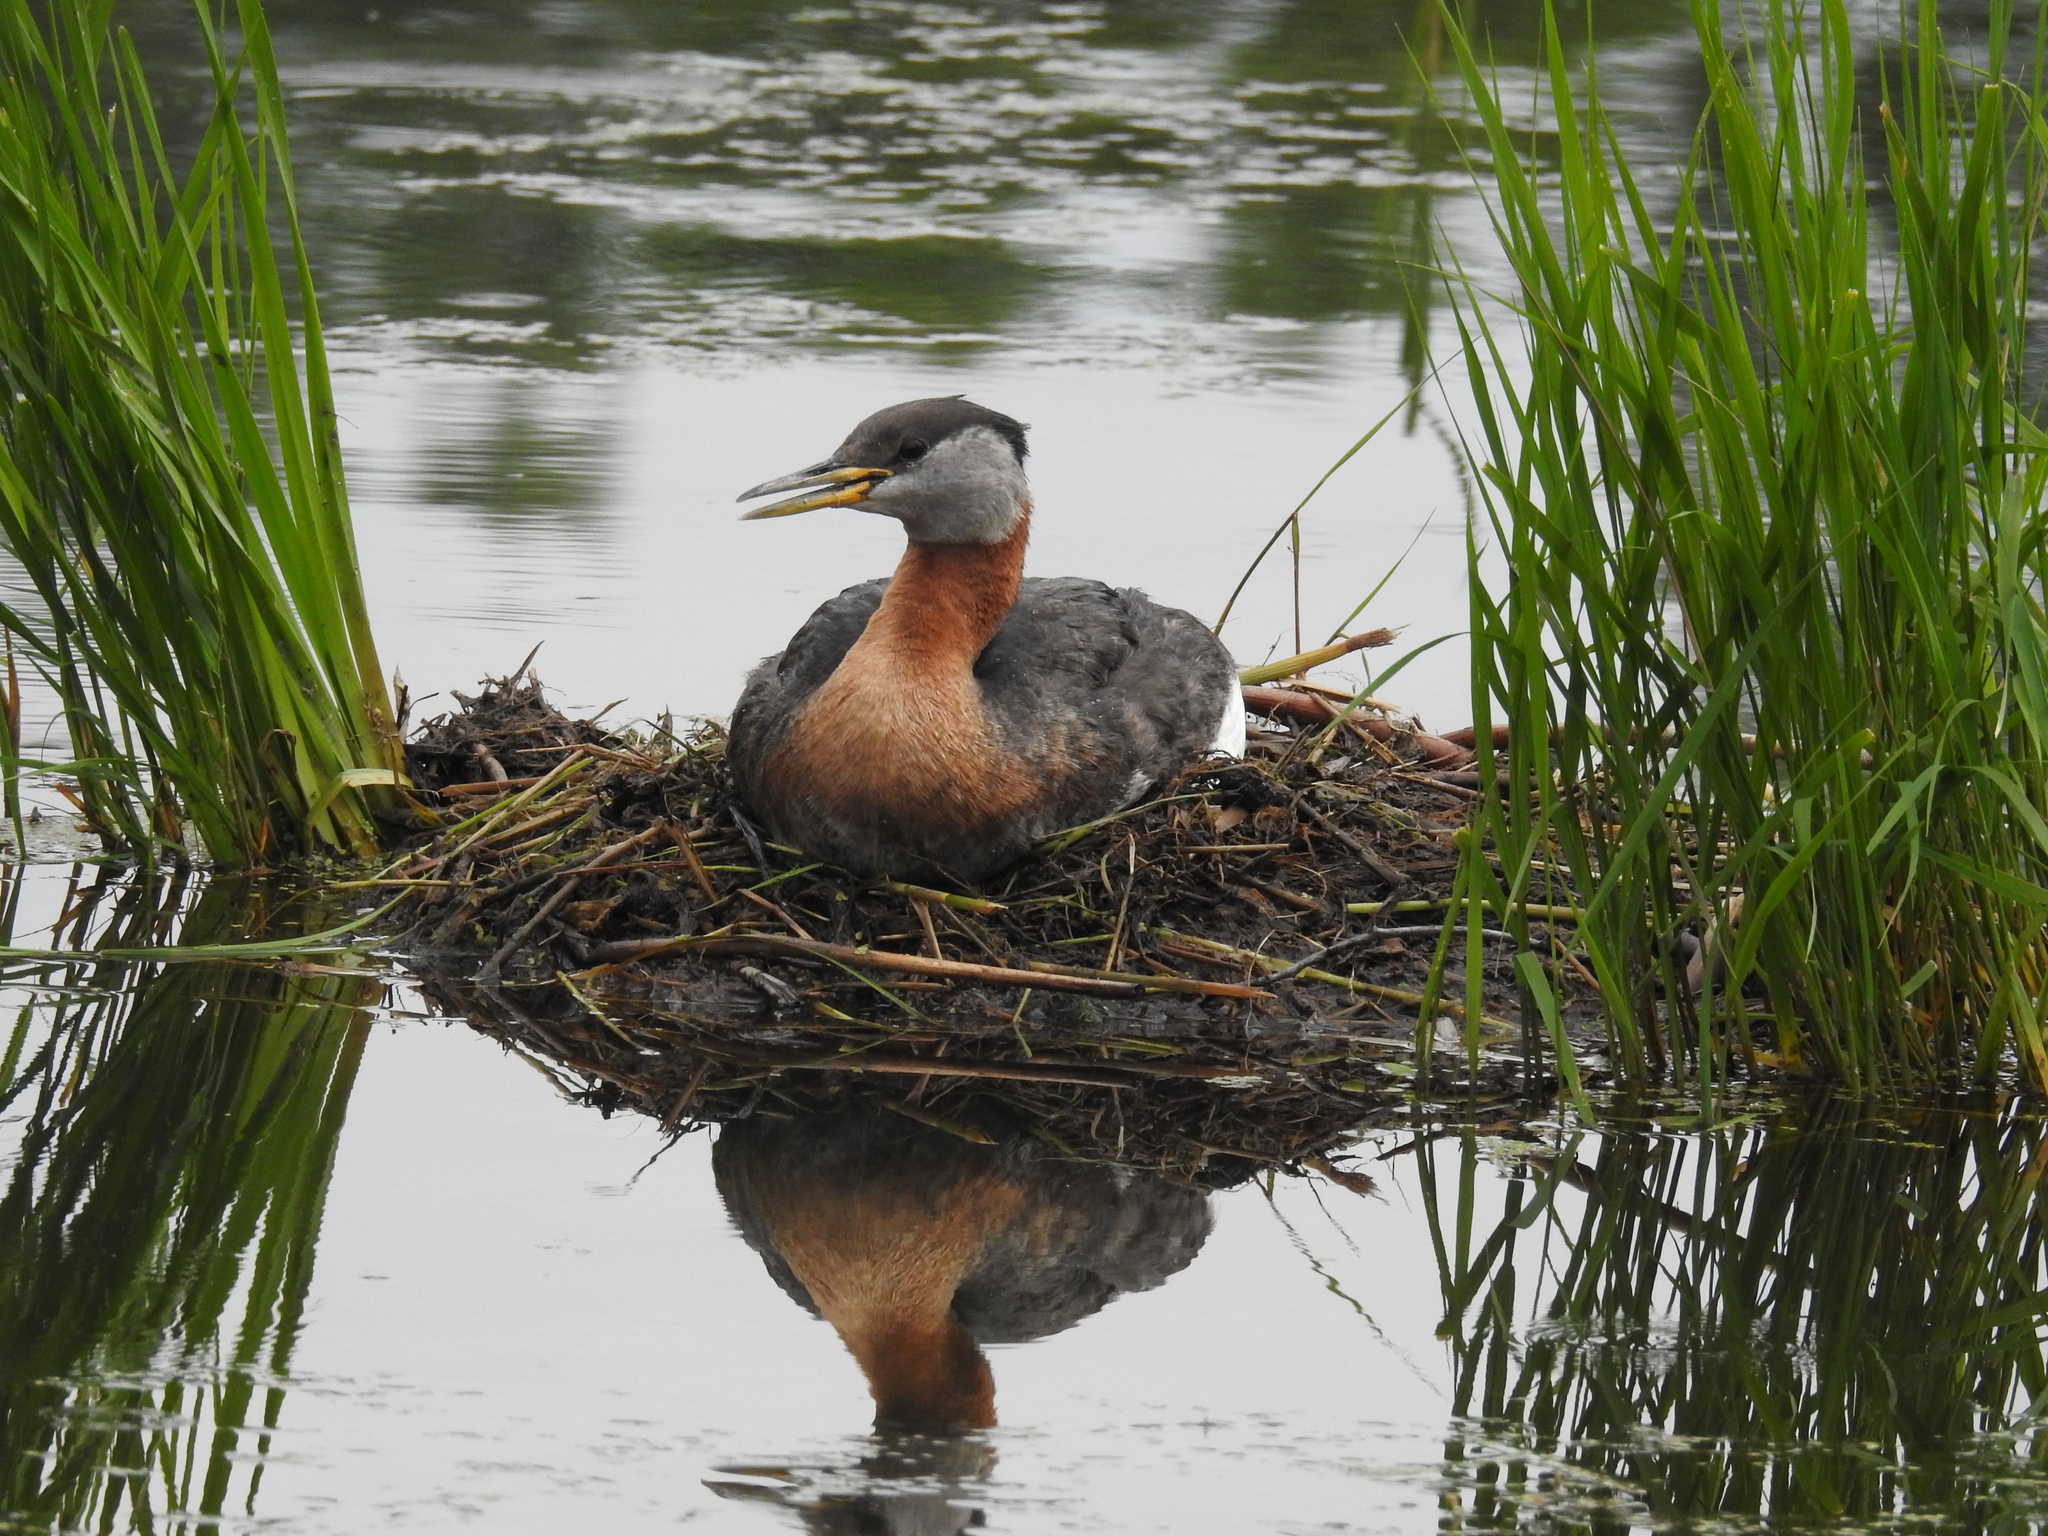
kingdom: Animalia
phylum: Chordata
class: Aves
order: Podicipediformes
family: Podicipedidae
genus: Podiceps
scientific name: Podiceps grisegena
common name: Red-necked grebe
